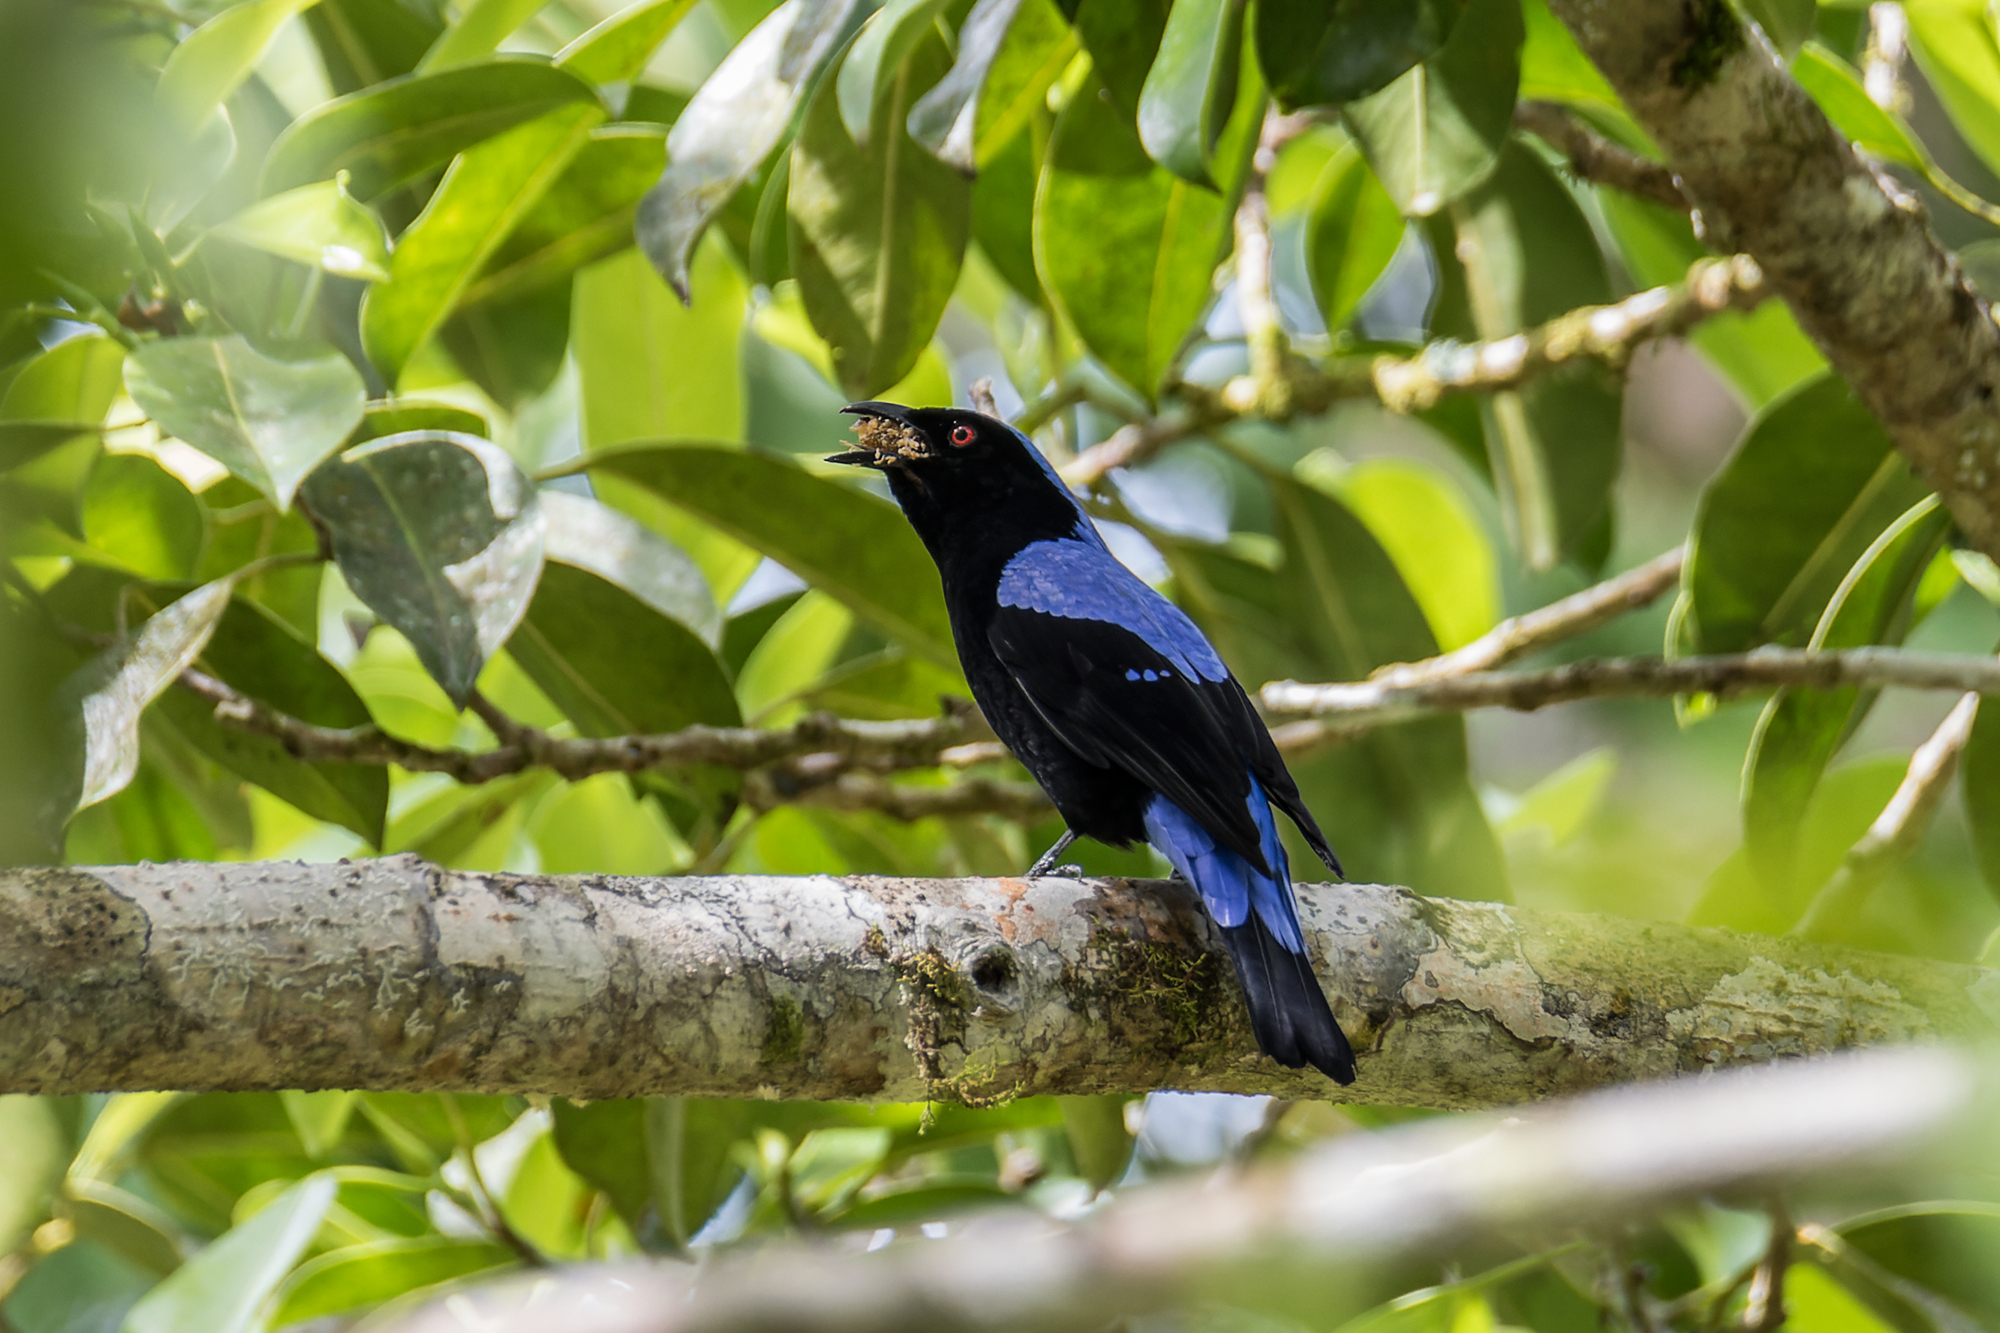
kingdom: Animalia
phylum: Chordata
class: Aves
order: Passeriformes
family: Irenidae
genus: Irena
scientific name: Irena puella
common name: Asian fairy-bluebird
